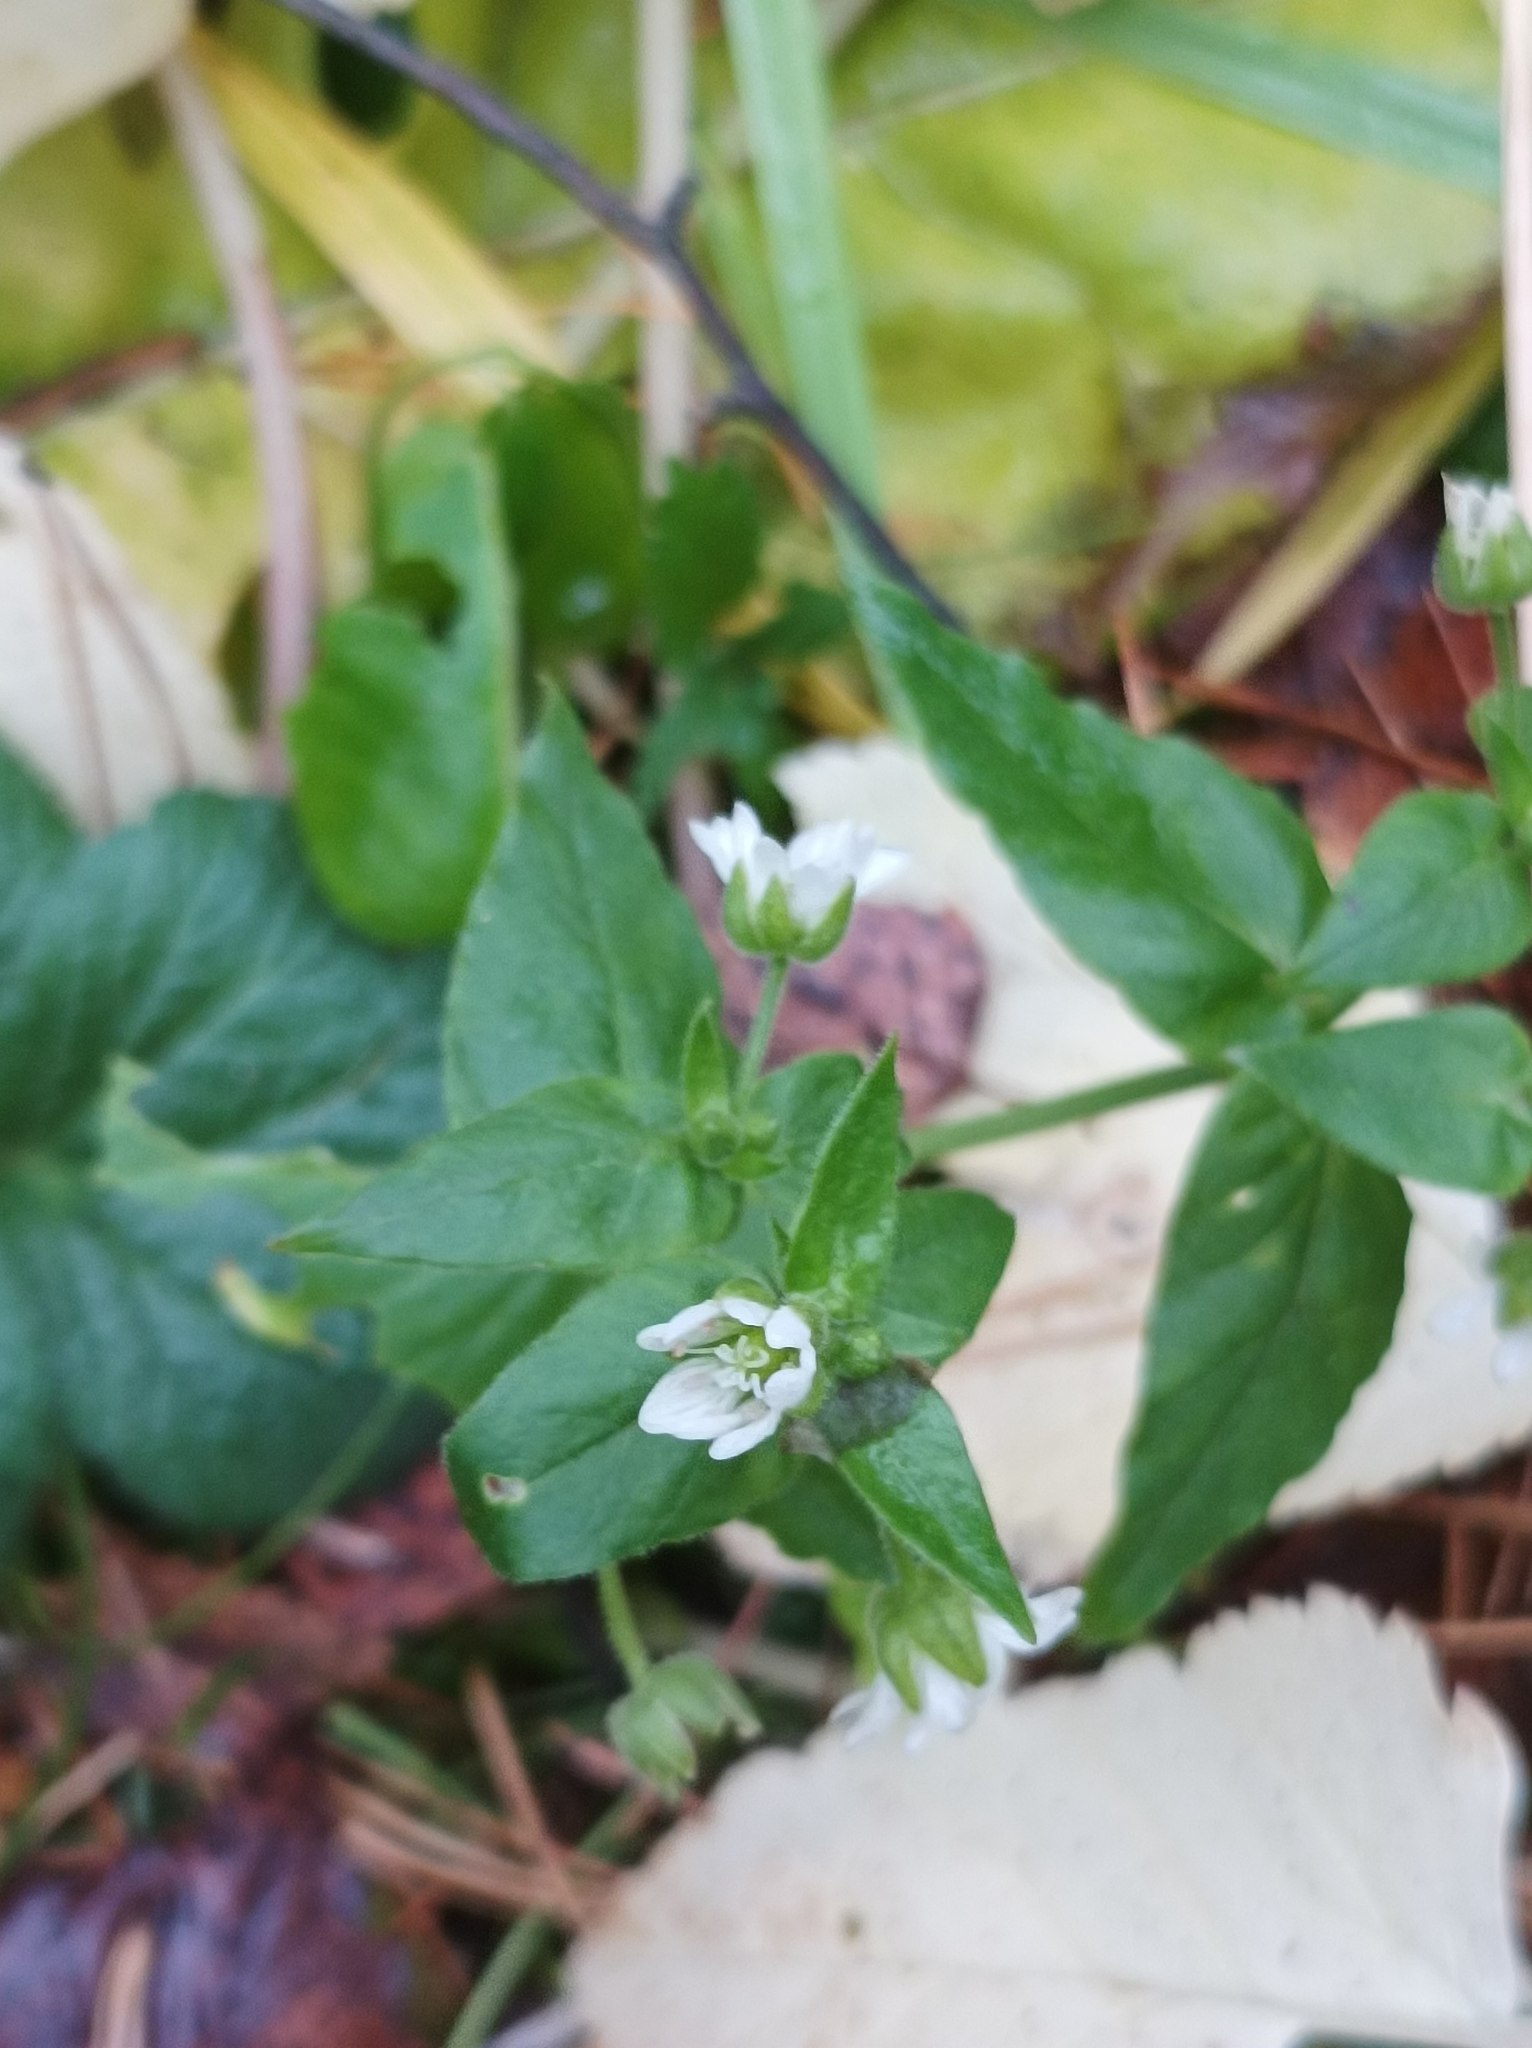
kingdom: Plantae
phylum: Tracheophyta
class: Magnoliopsida
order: Caryophyllales
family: Caryophyllaceae
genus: Stellaria
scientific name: Stellaria aquatica
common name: Water chickweed
